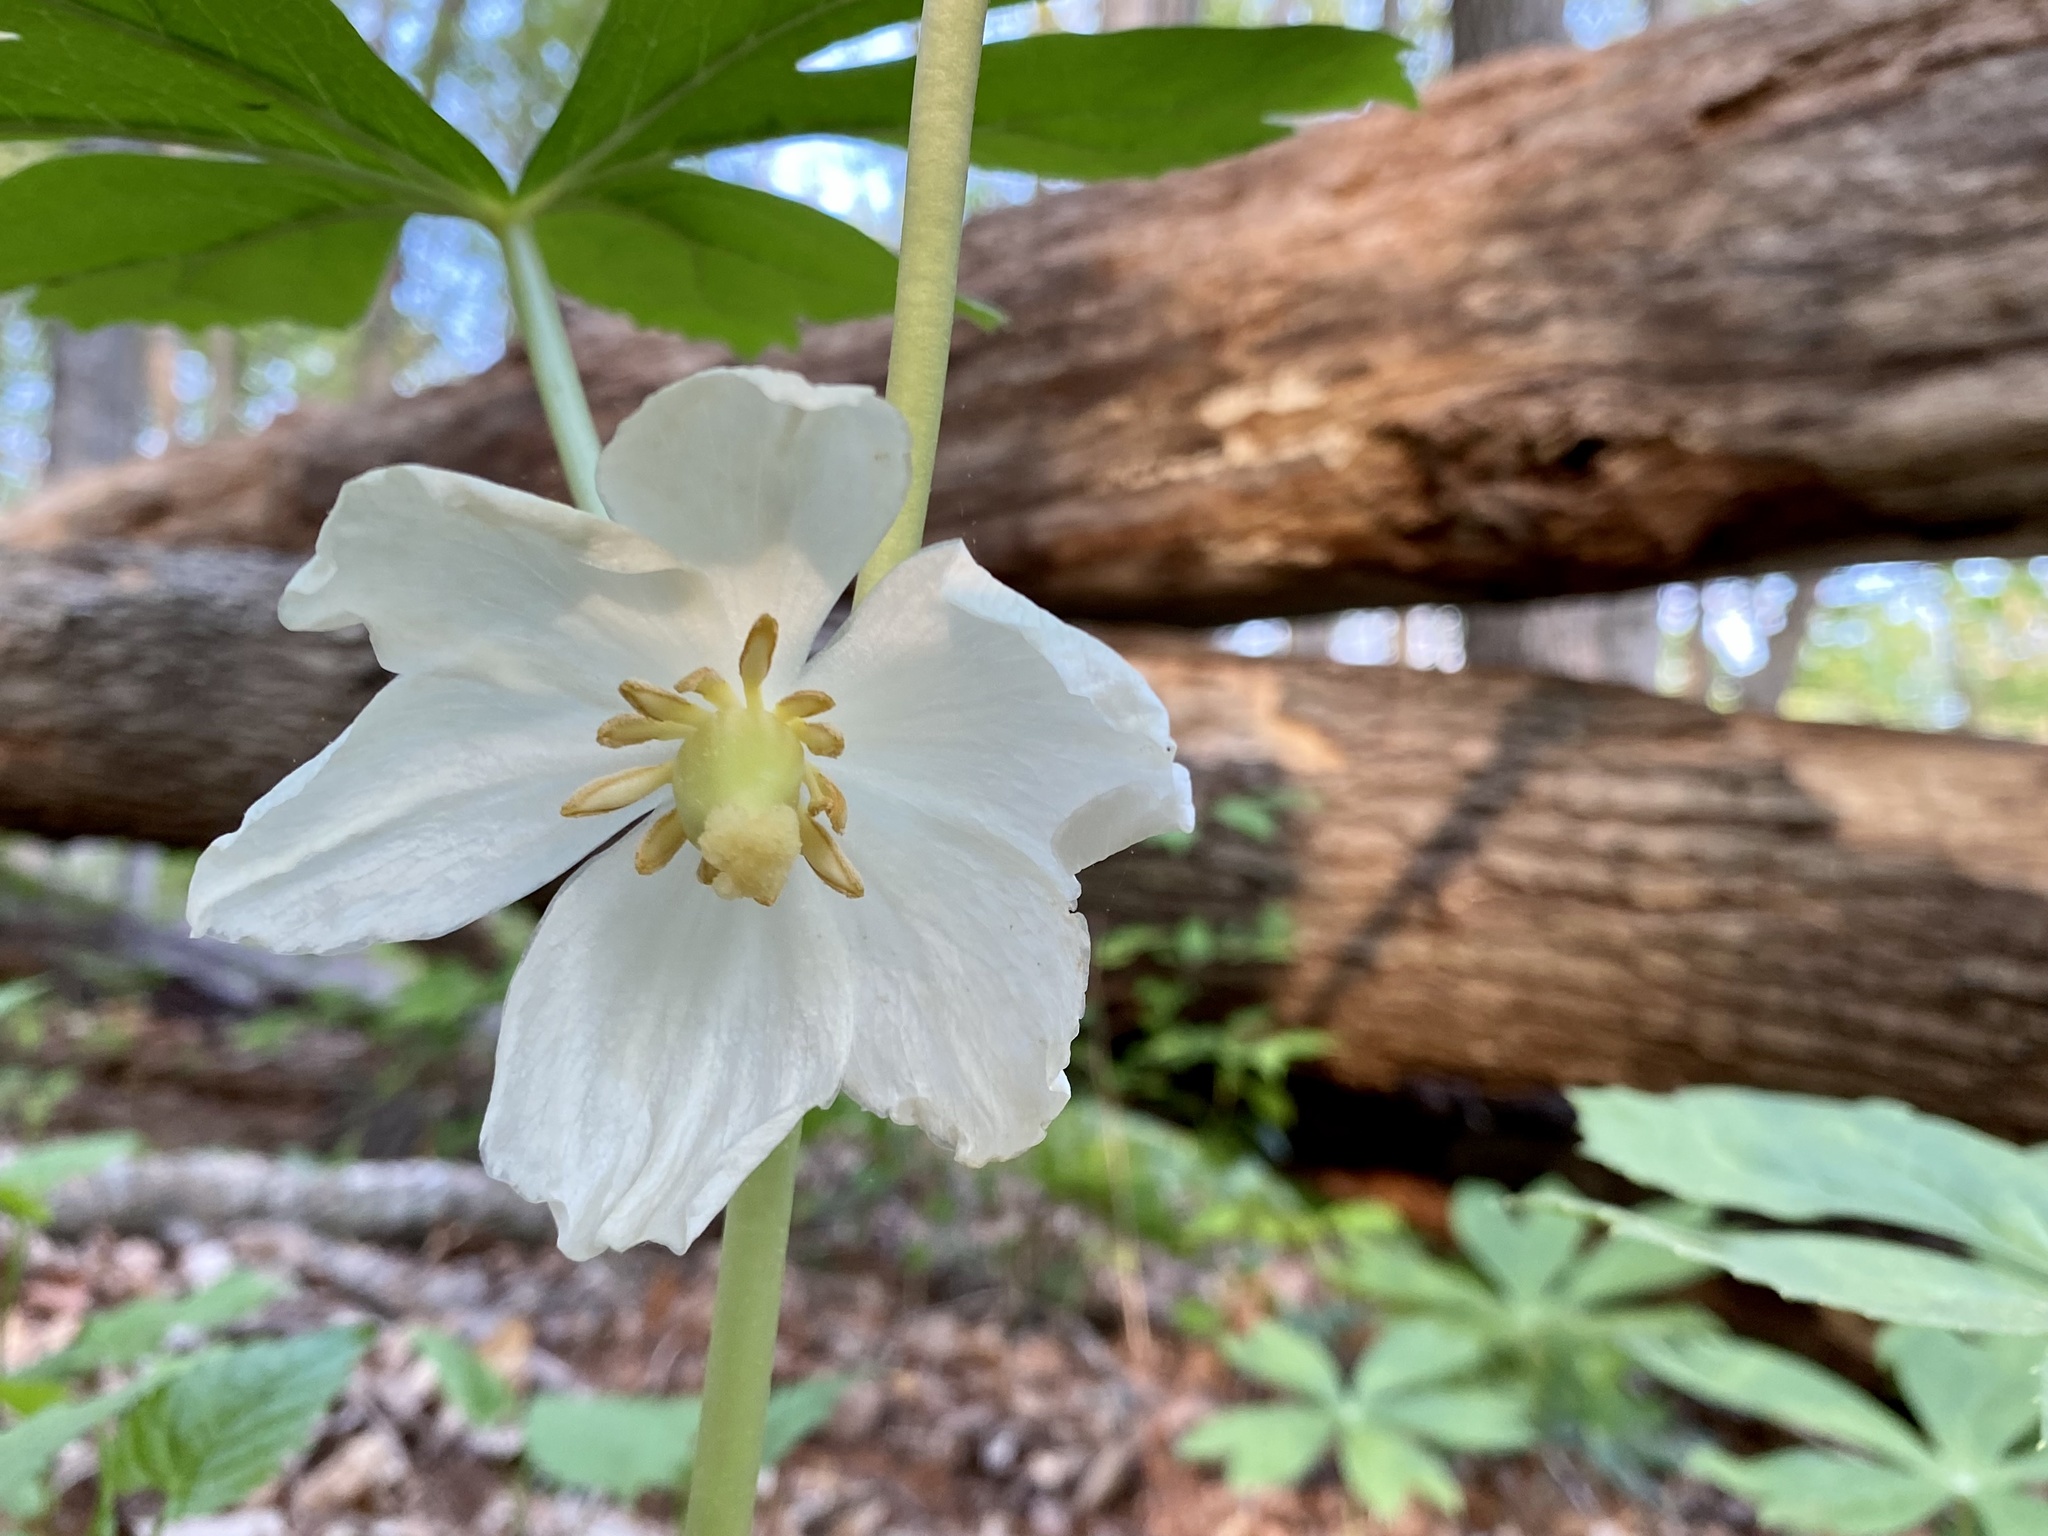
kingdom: Plantae
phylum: Tracheophyta
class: Magnoliopsida
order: Ranunculales
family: Berberidaceae
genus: Podophyllum
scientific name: Podophyllum peltatum
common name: Wild mandrake
